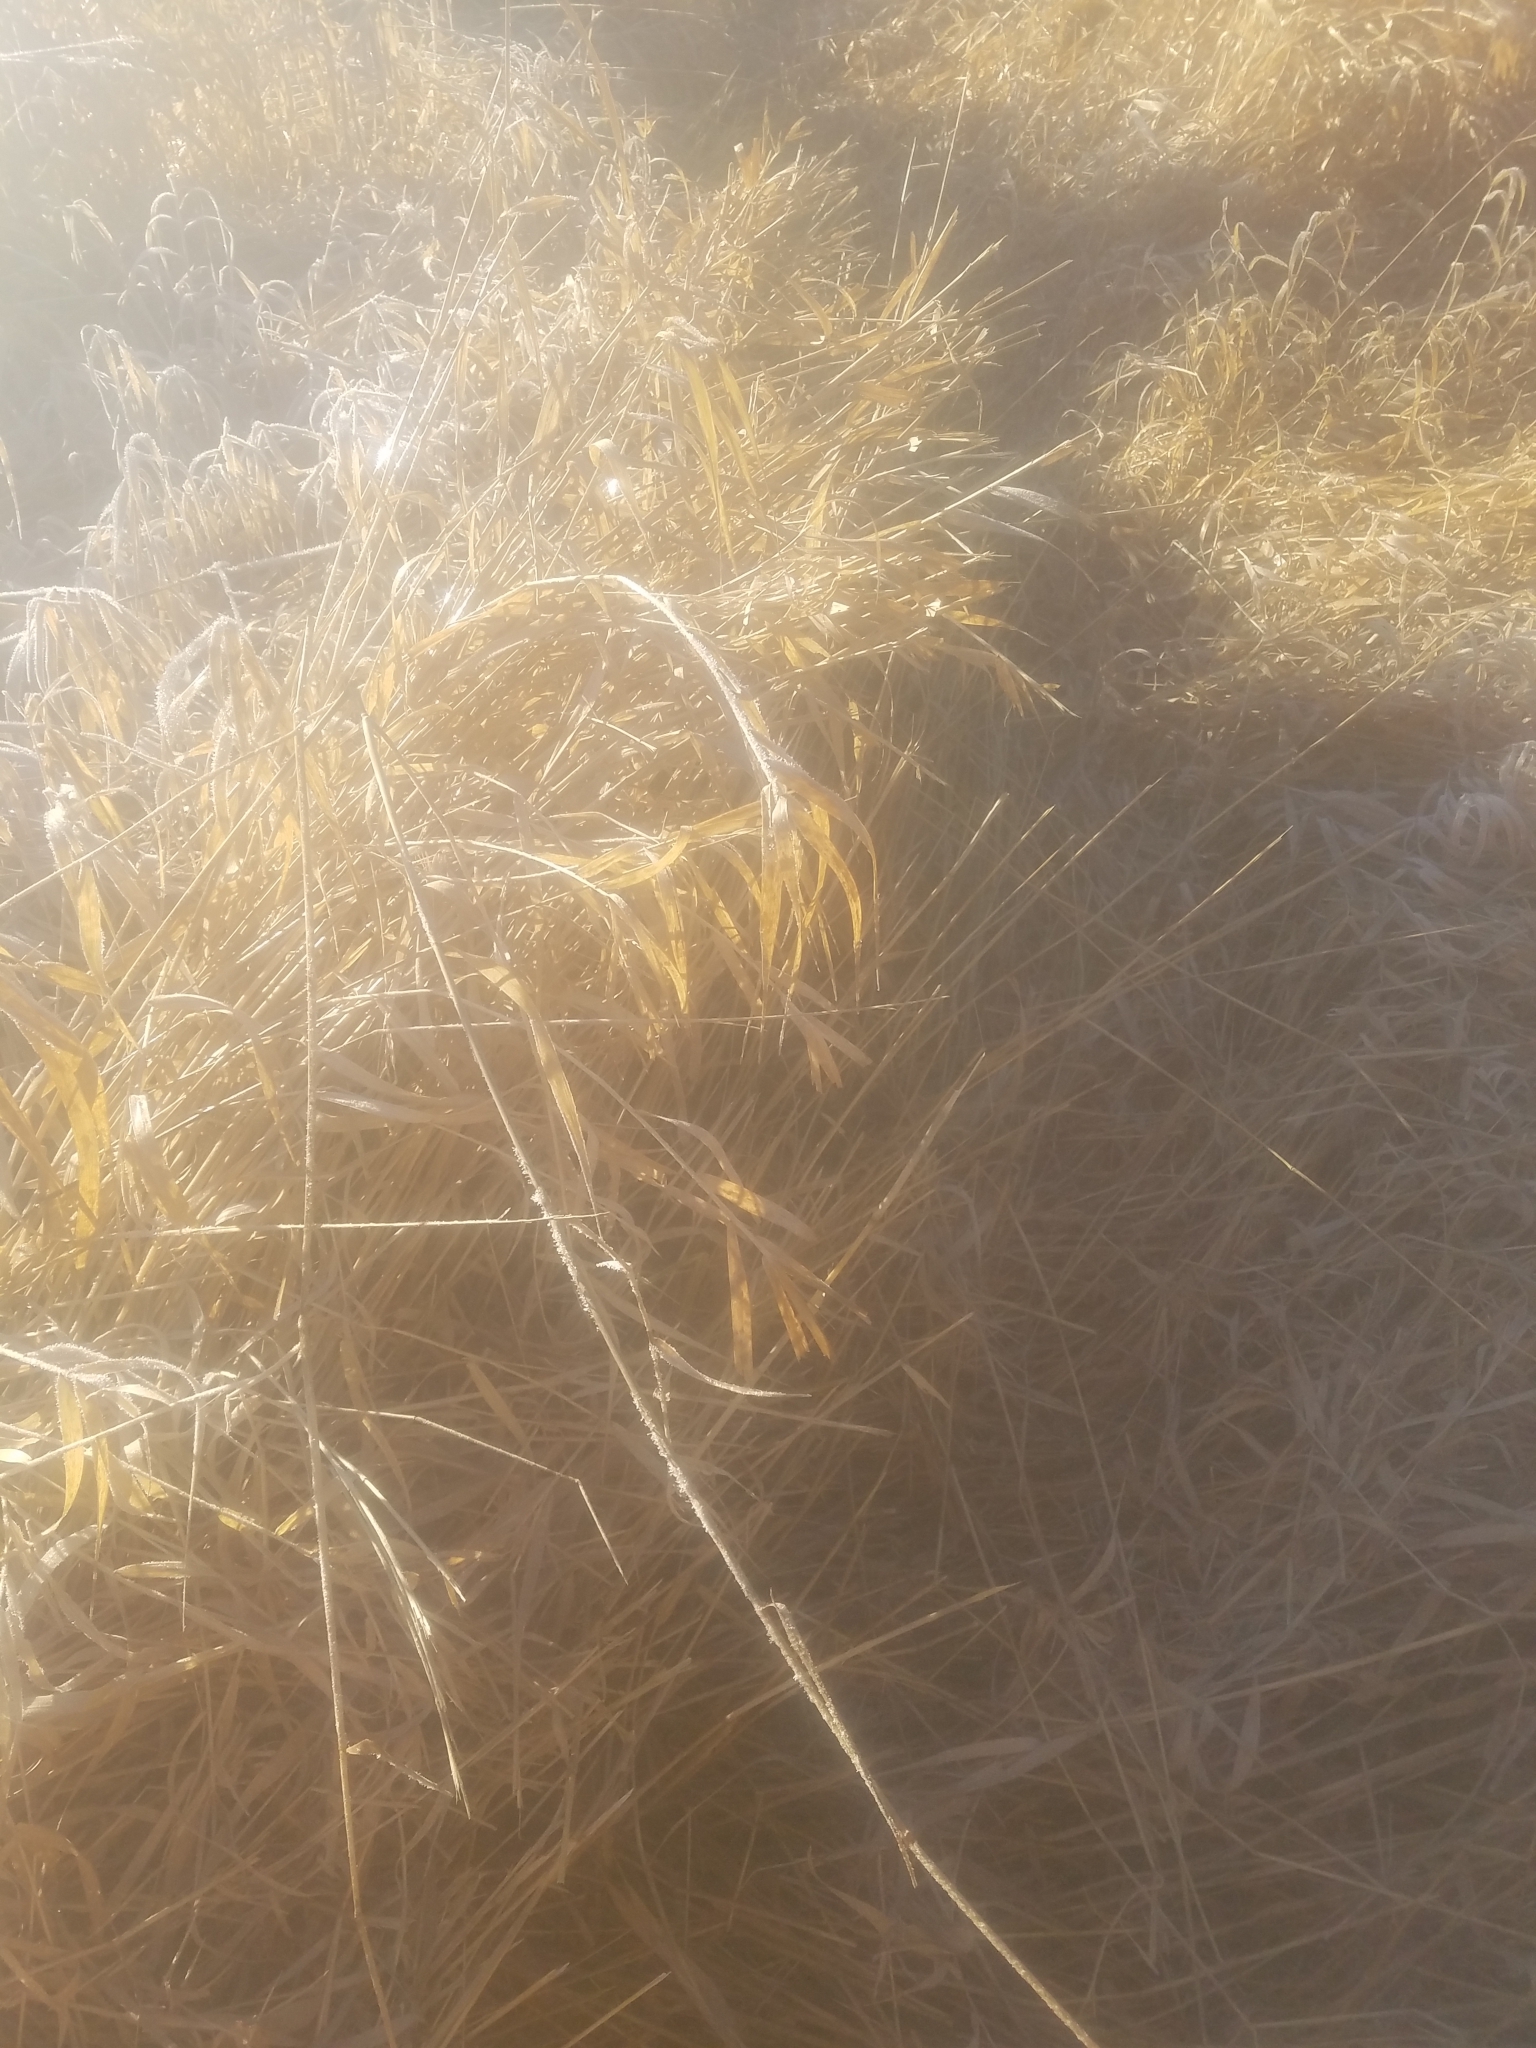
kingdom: Plantae
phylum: Tracheophyta
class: Liliopsida
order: Poales
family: Poaceae
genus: Phalaris
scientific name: Phalaris arundinacea
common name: Reed canary-grass
